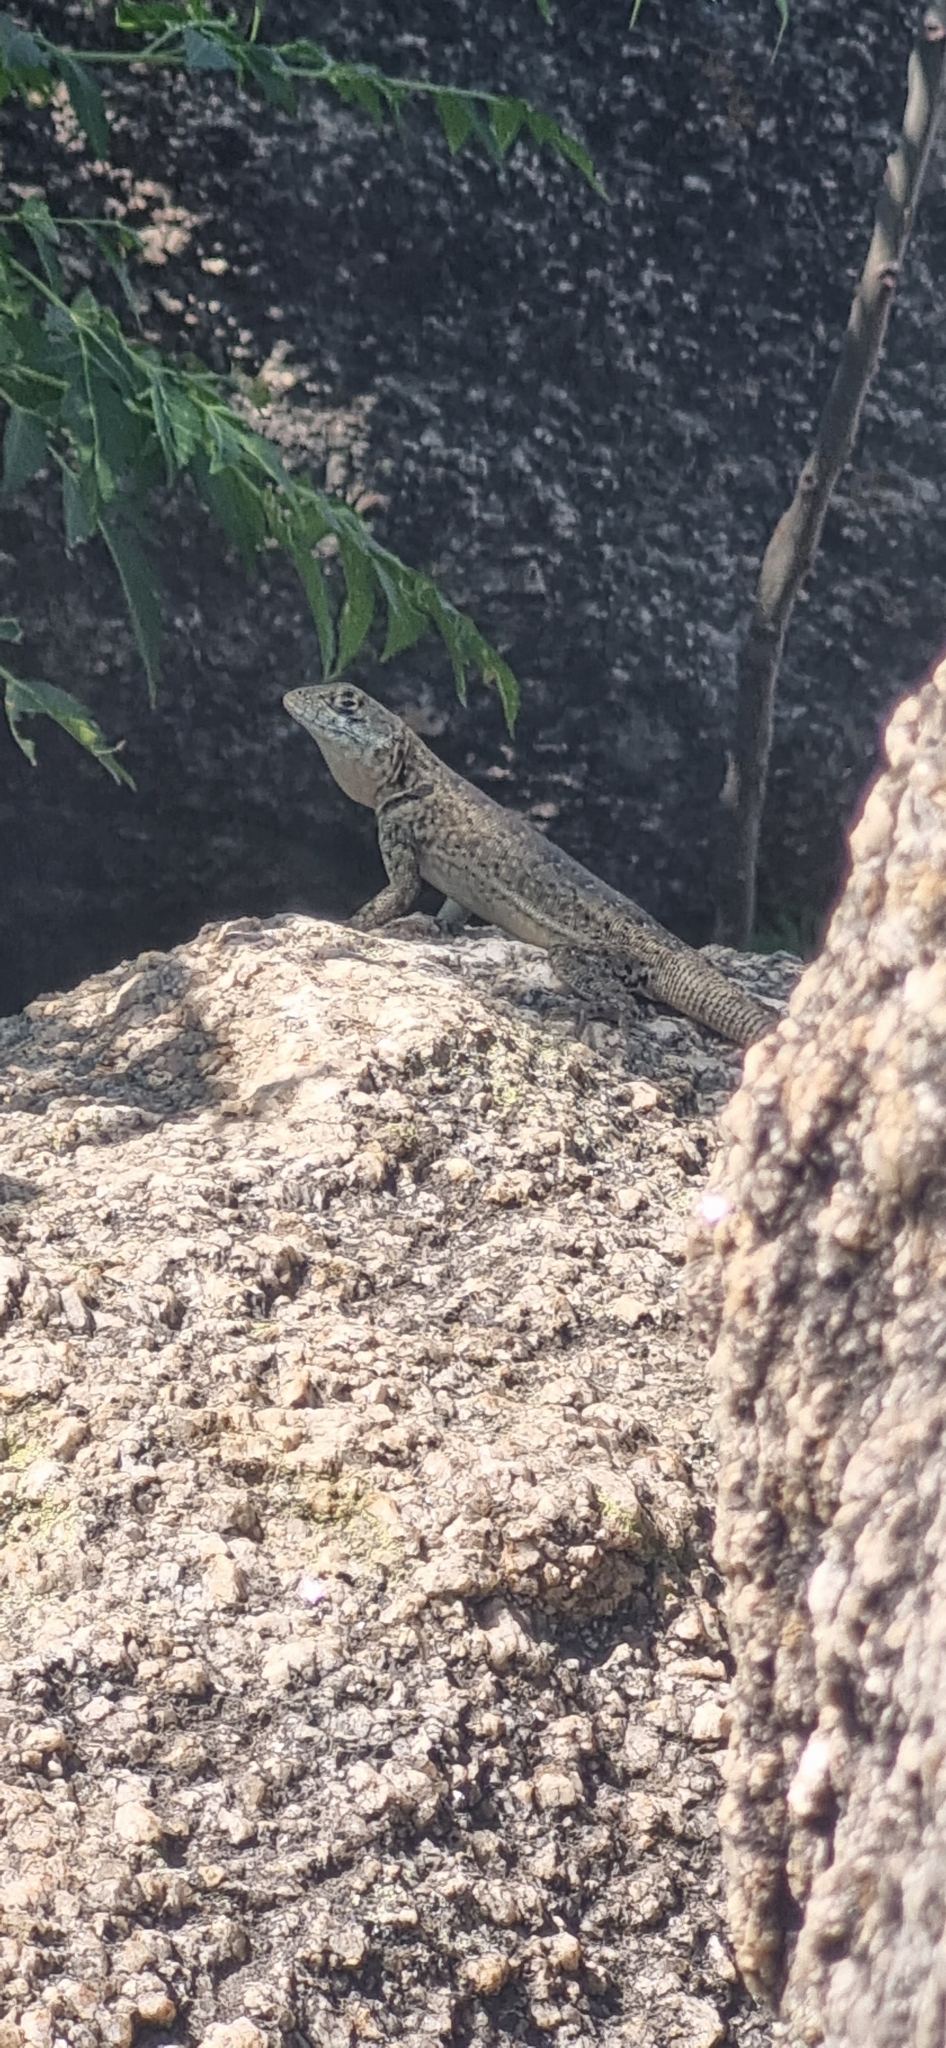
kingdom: Animalia
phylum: Chordata
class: Squamata
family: Tropiduridae
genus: Tropidurus
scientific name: Tropidurus etheridgei
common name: Etheridge's lava lizard
